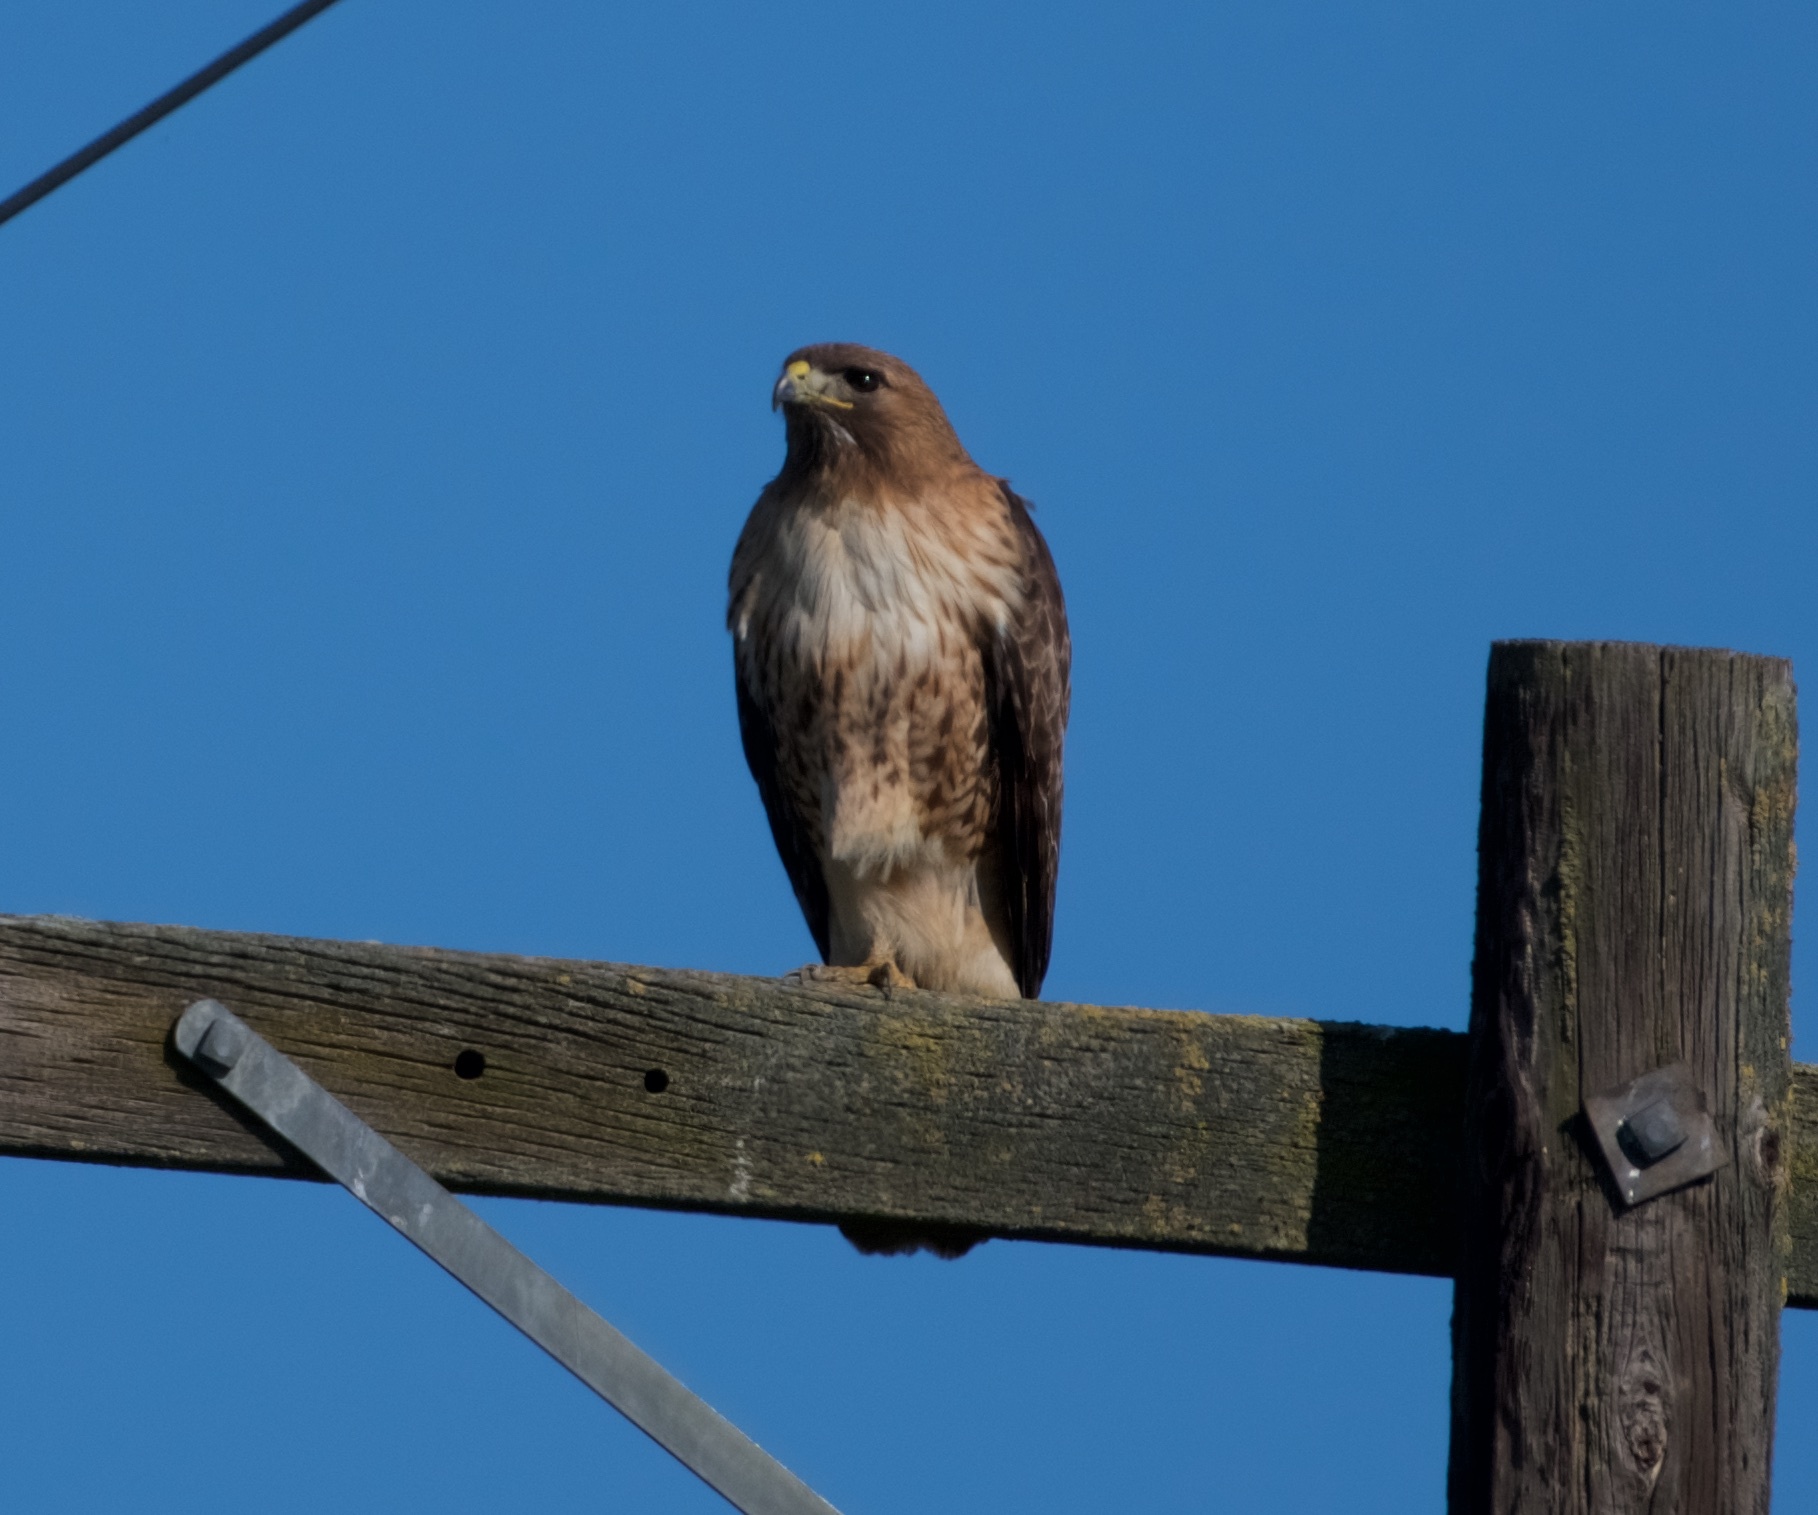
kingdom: Animalia
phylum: Chordata
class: Aves
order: Accipitriformes
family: Accipitridae
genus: Buteo
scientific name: Buteo jamaicensis
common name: Red-tailed hawk
